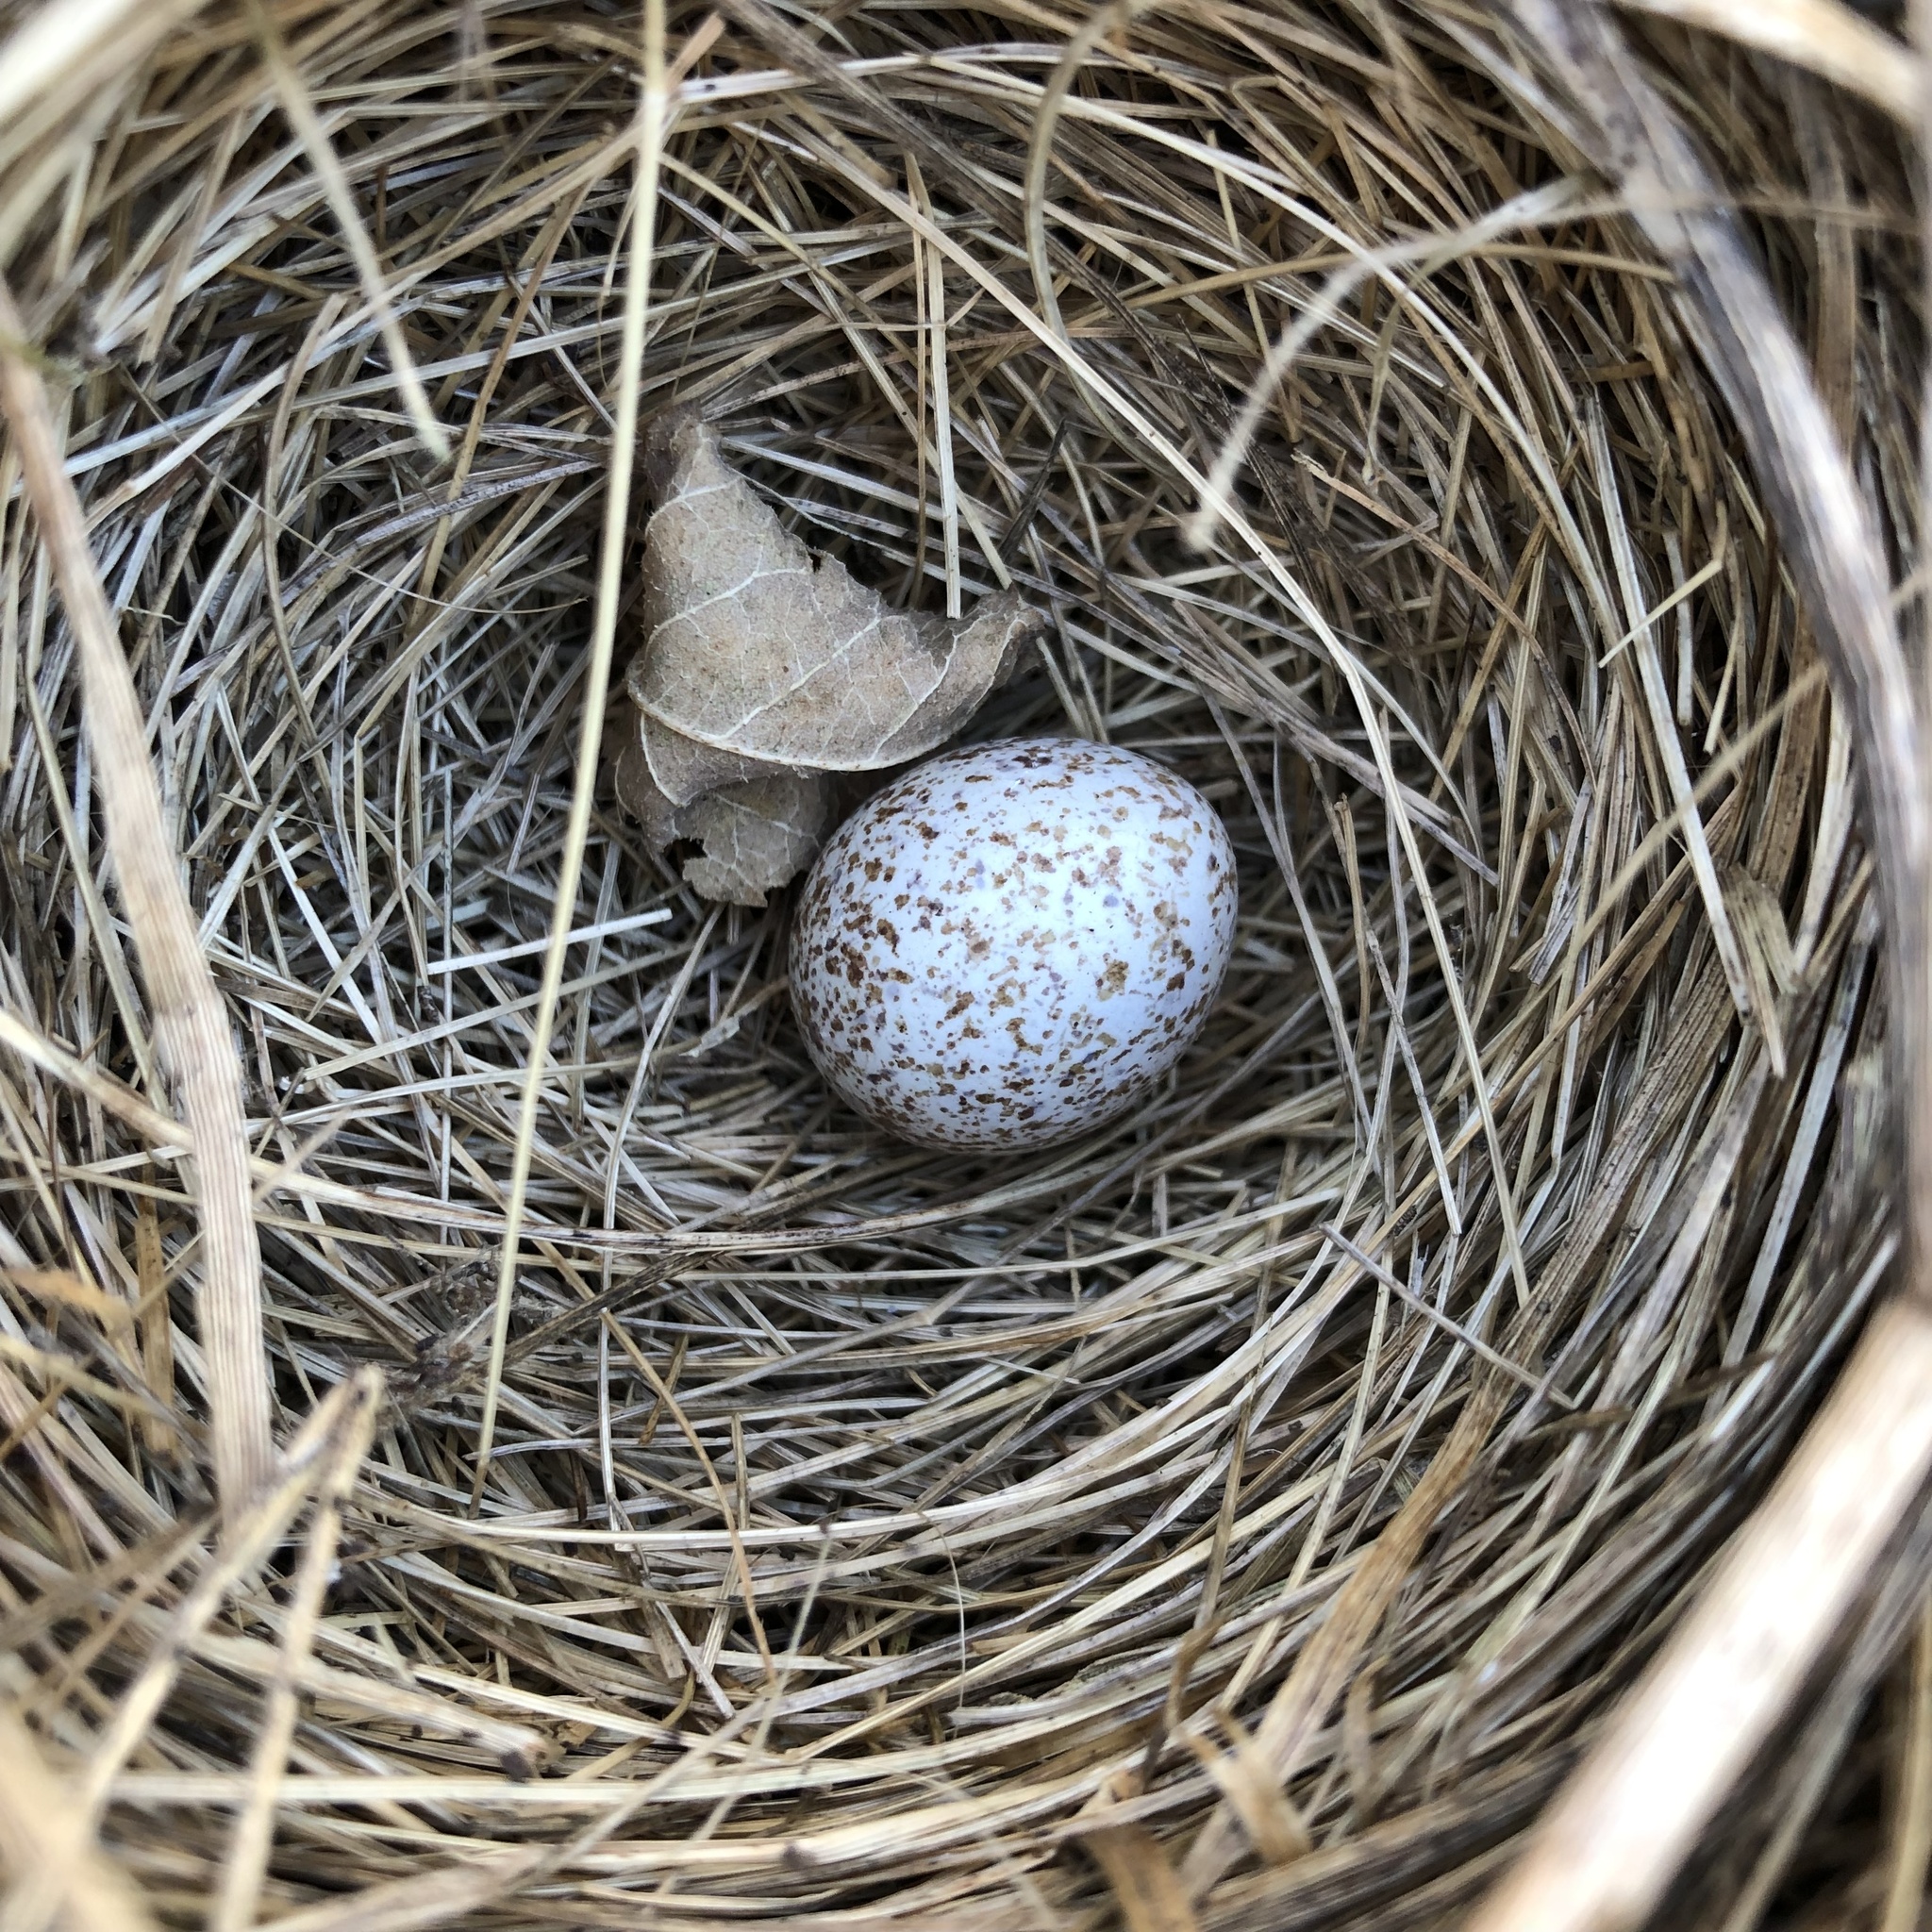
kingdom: Animalia
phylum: Chordata
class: Aves
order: Passeriformes
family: Passerellidae
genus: Melospiza
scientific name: Melospiza melodia
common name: Song sparrow
